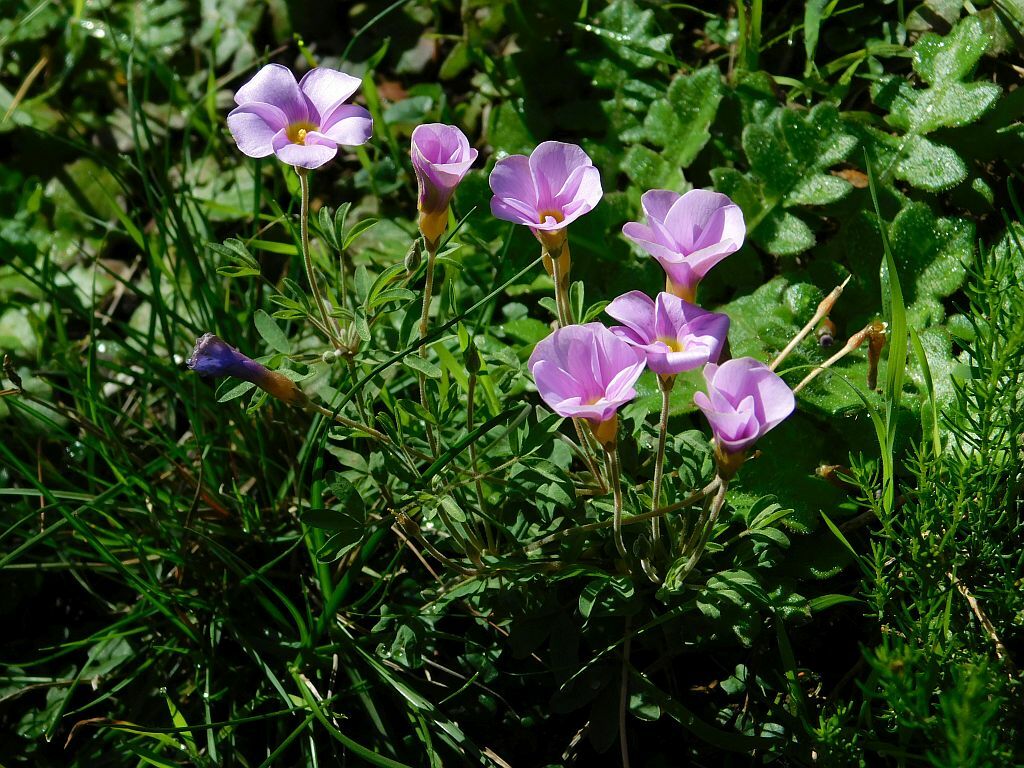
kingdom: Plantae
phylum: Tracheophyta
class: Magnoliopsida
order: Oxalidales
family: Oxalidaceae
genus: Oxalis
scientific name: Oxalis ciliaris
